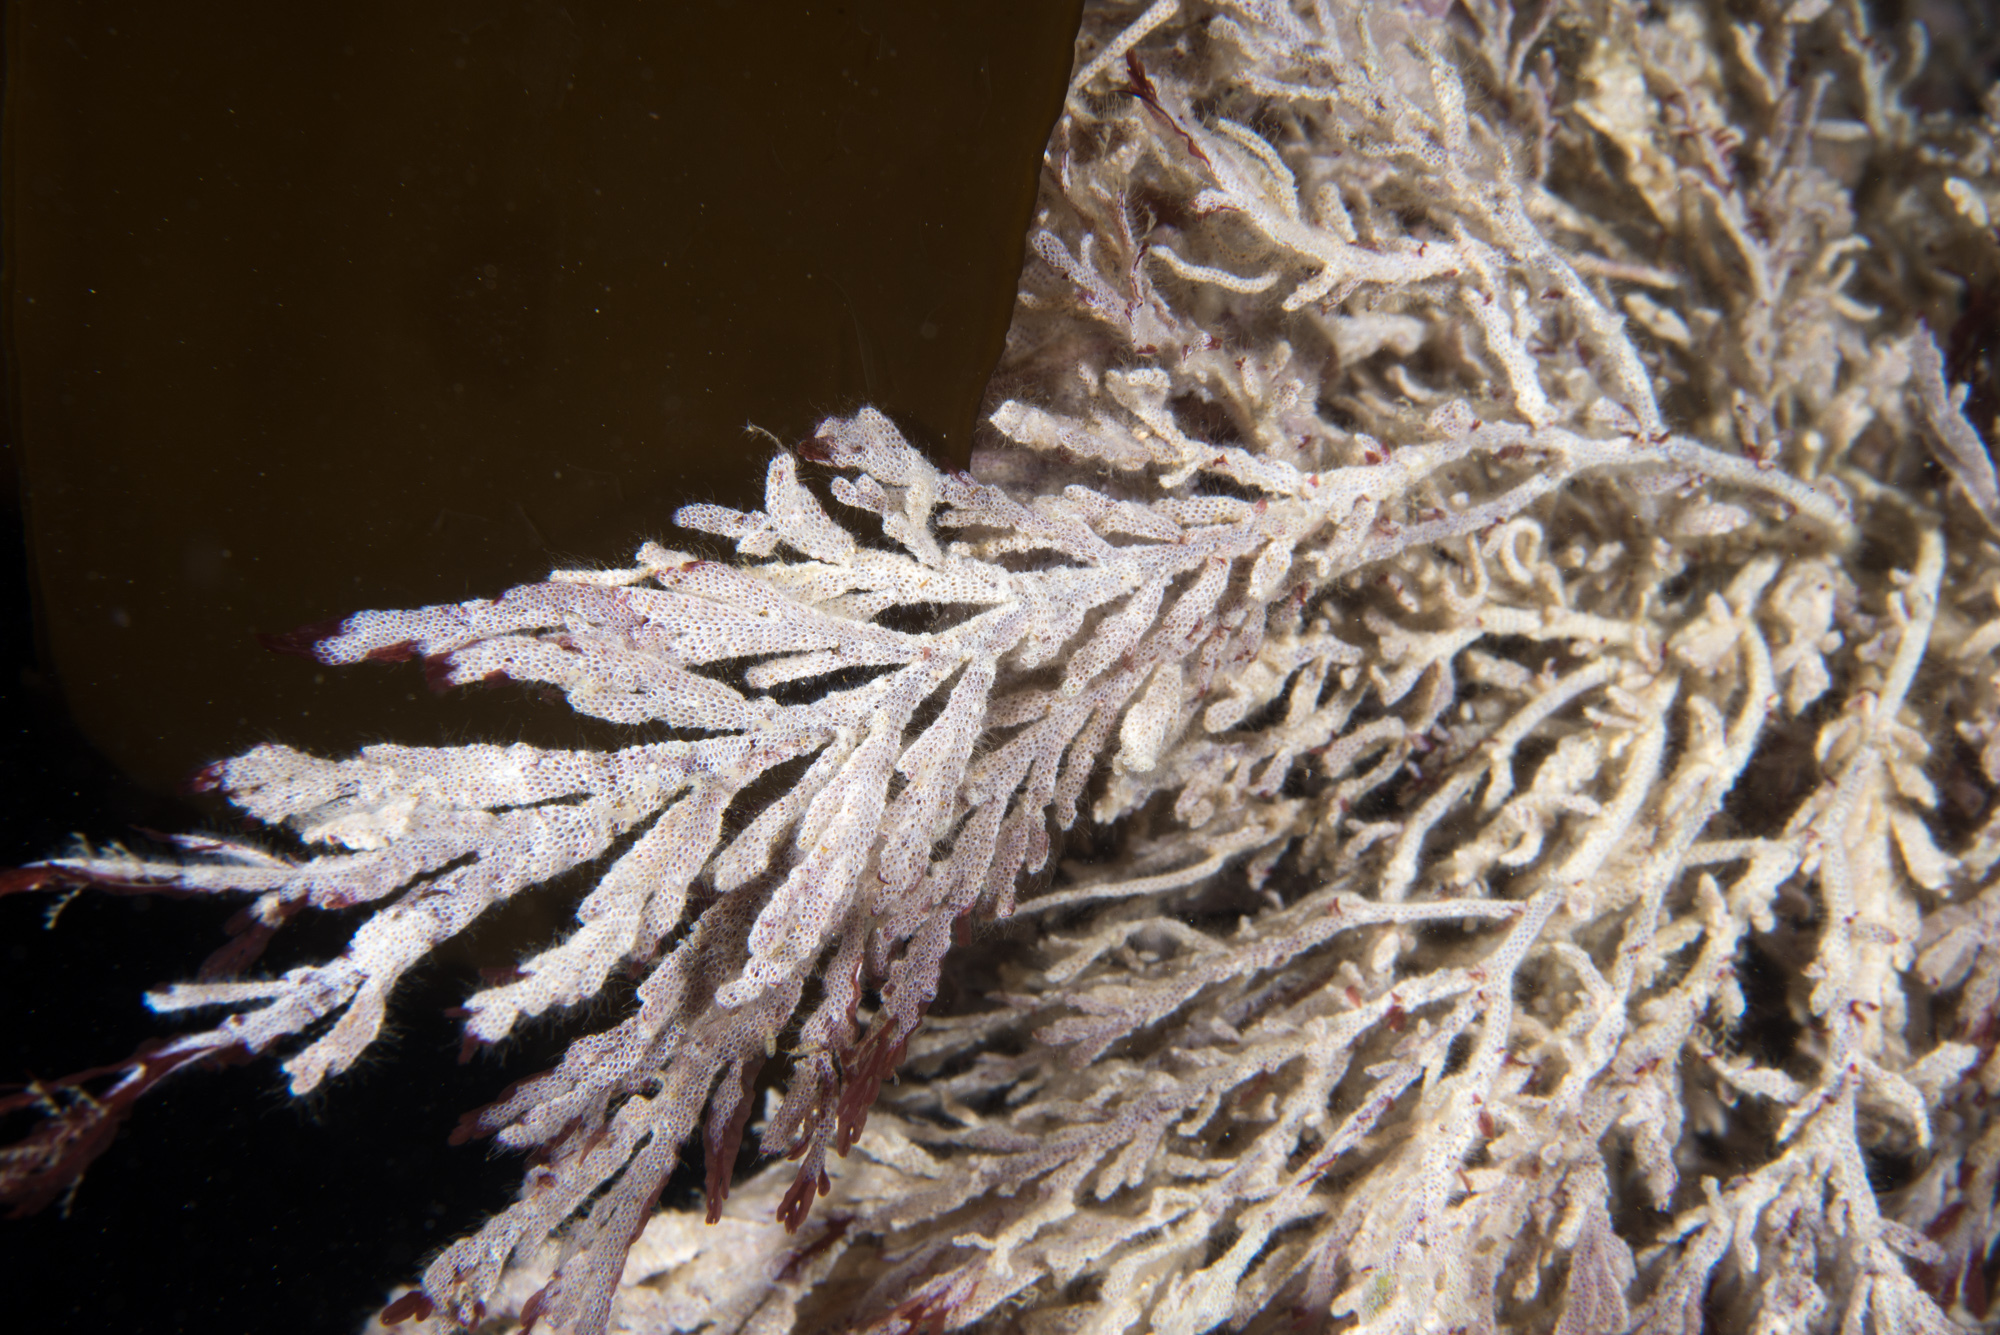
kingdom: Animalia
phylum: Bryozoa
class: Gymnolaemata
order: Cheilostomatida
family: Electridae
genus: Electra
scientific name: Electra pilosa
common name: Hairy sea-mat
